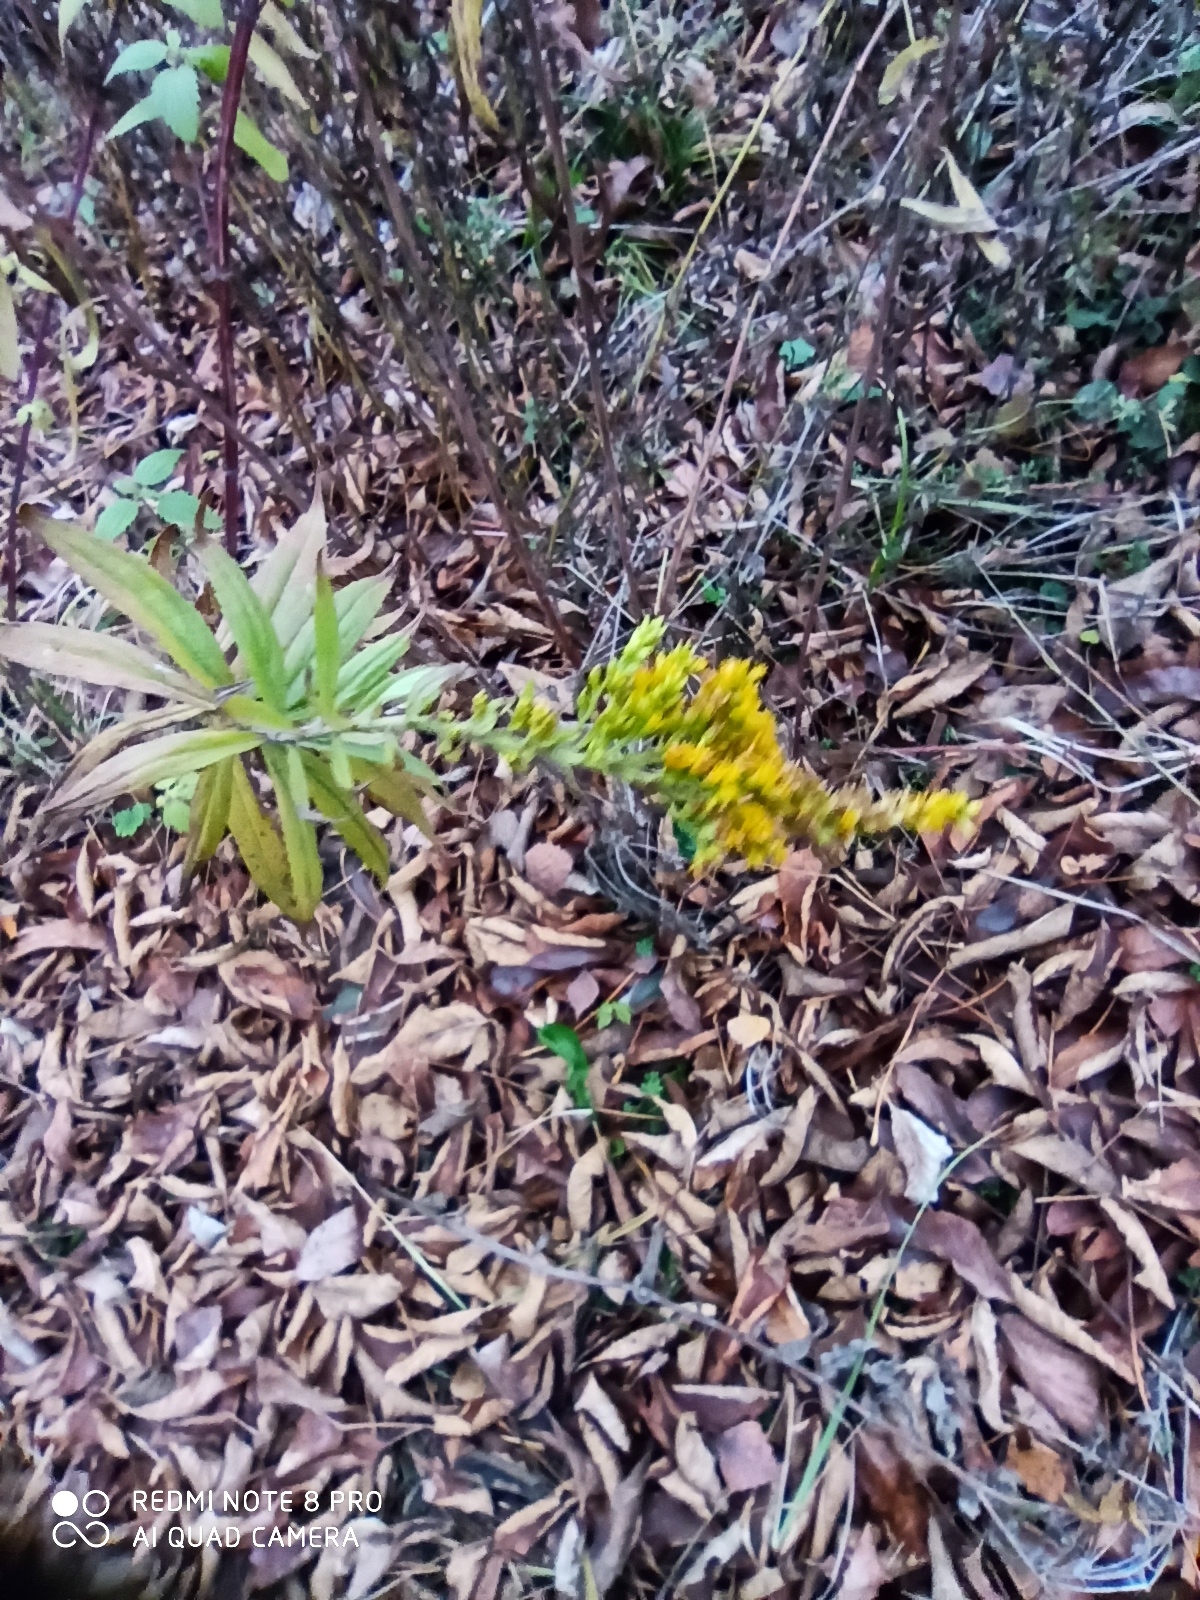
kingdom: Plantae
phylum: Tracheophyta
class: Magnoliopsida
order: Asterales
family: Asteraceae
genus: Solidago
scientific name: Solidago canadensis
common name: Canada goldenrod
